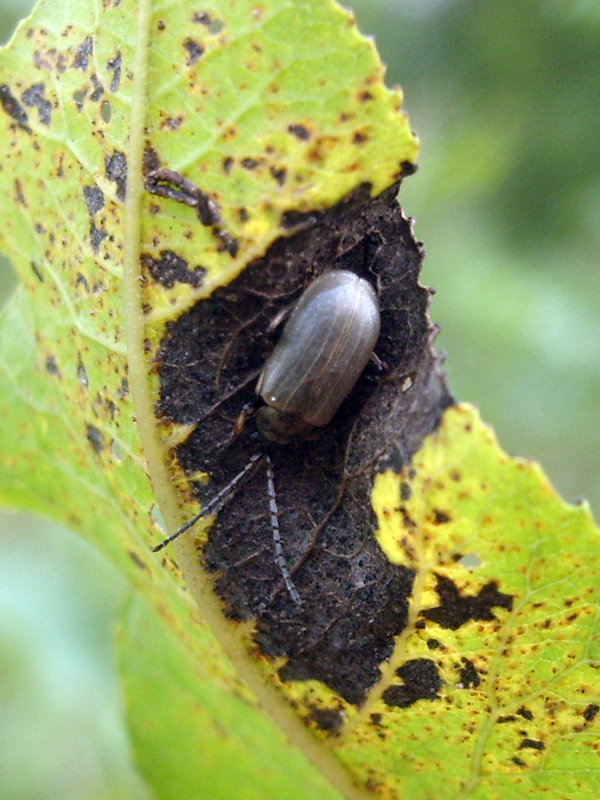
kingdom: Animalia
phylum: Arthropoda
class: Insecta
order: Coleoptera
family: Chrysomelidae
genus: Lochmaea
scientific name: Lochmaea caprea
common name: Willow leaf beetle
